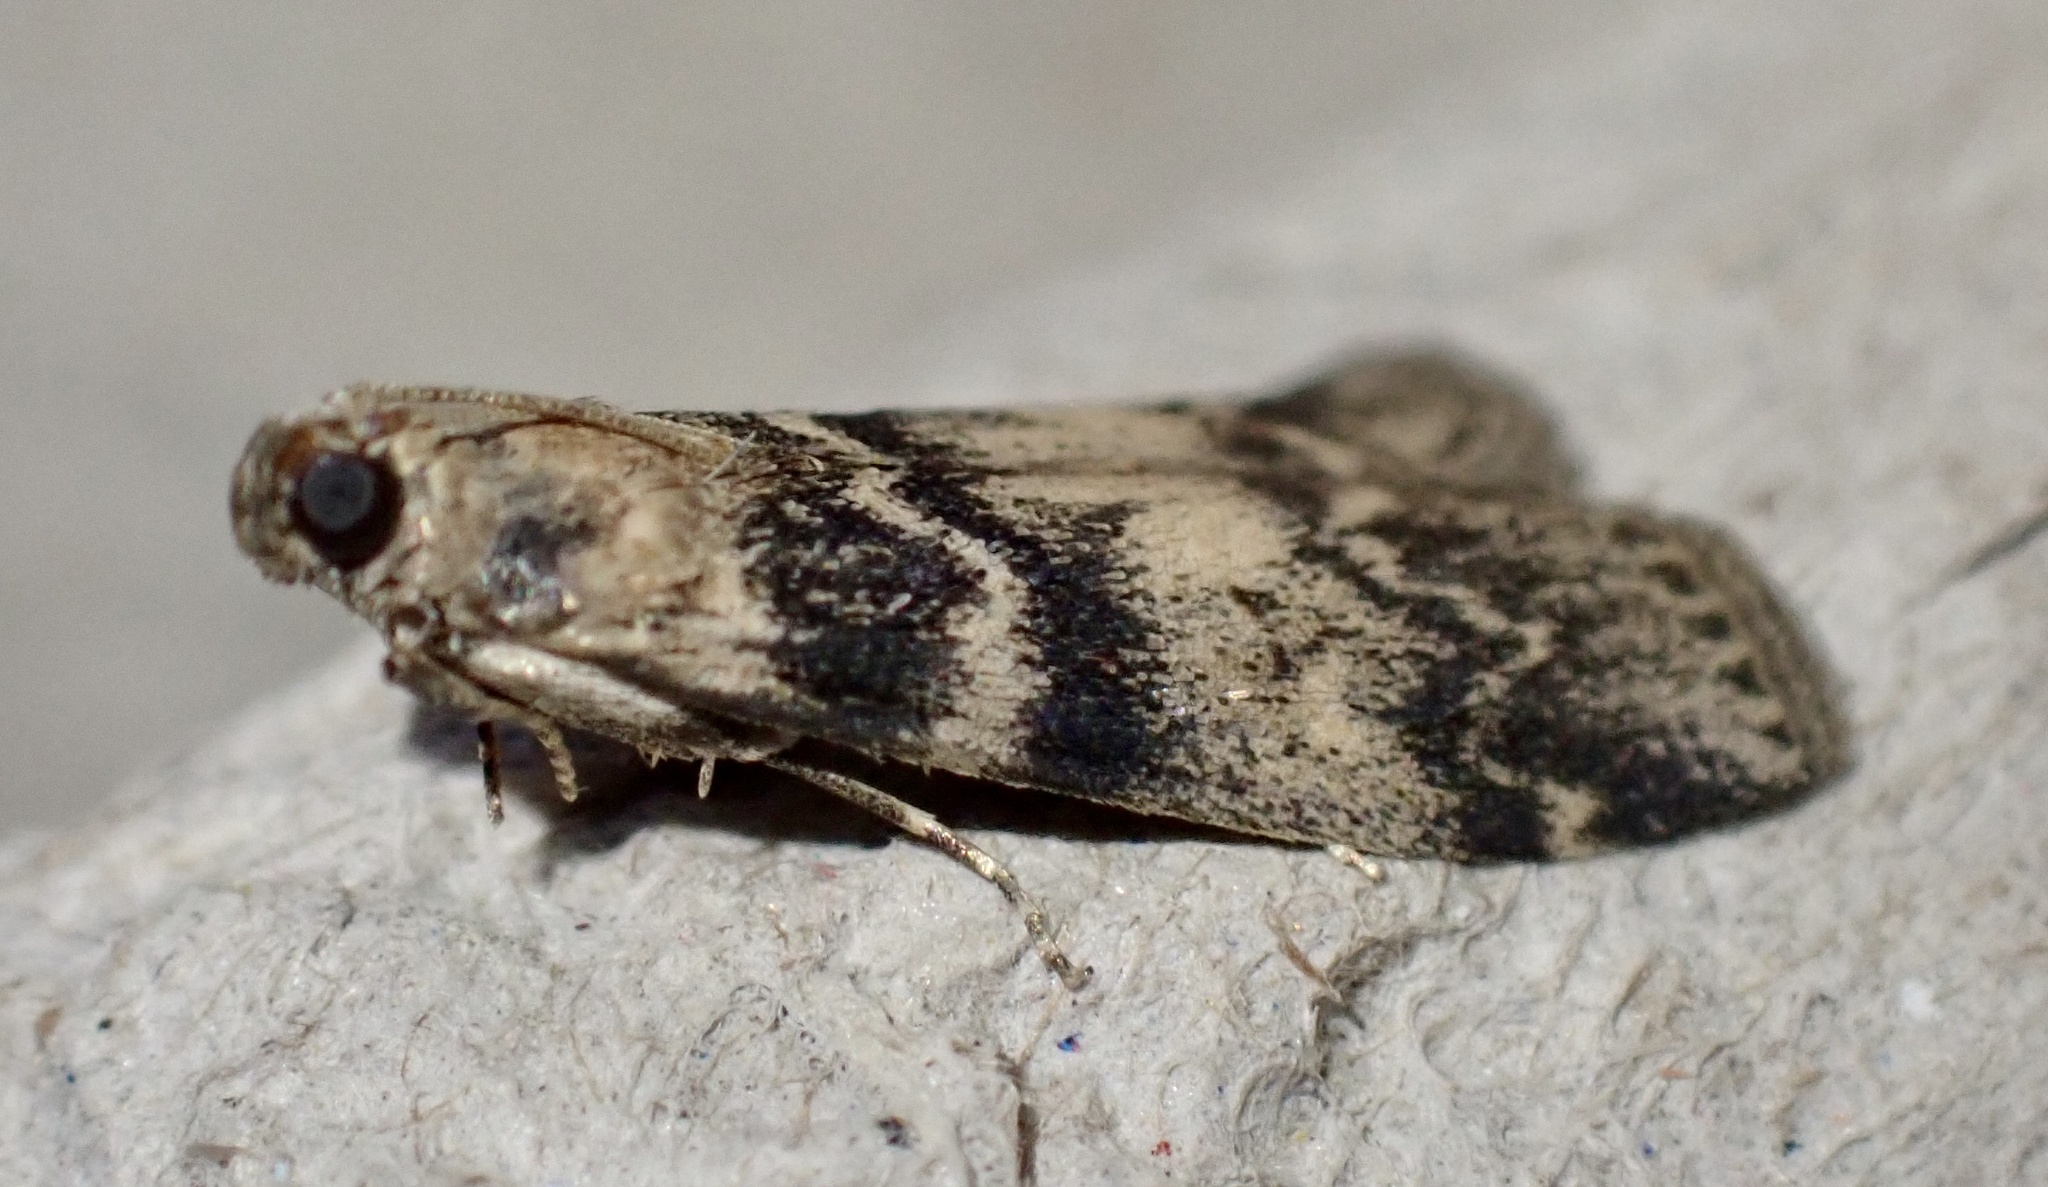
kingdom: Animalia
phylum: Arthropoda
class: Insecta
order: Lepidoptera
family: Pyralidae
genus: Euzophera
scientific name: Euzophera pinguis
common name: Ash-bark knot-horn
